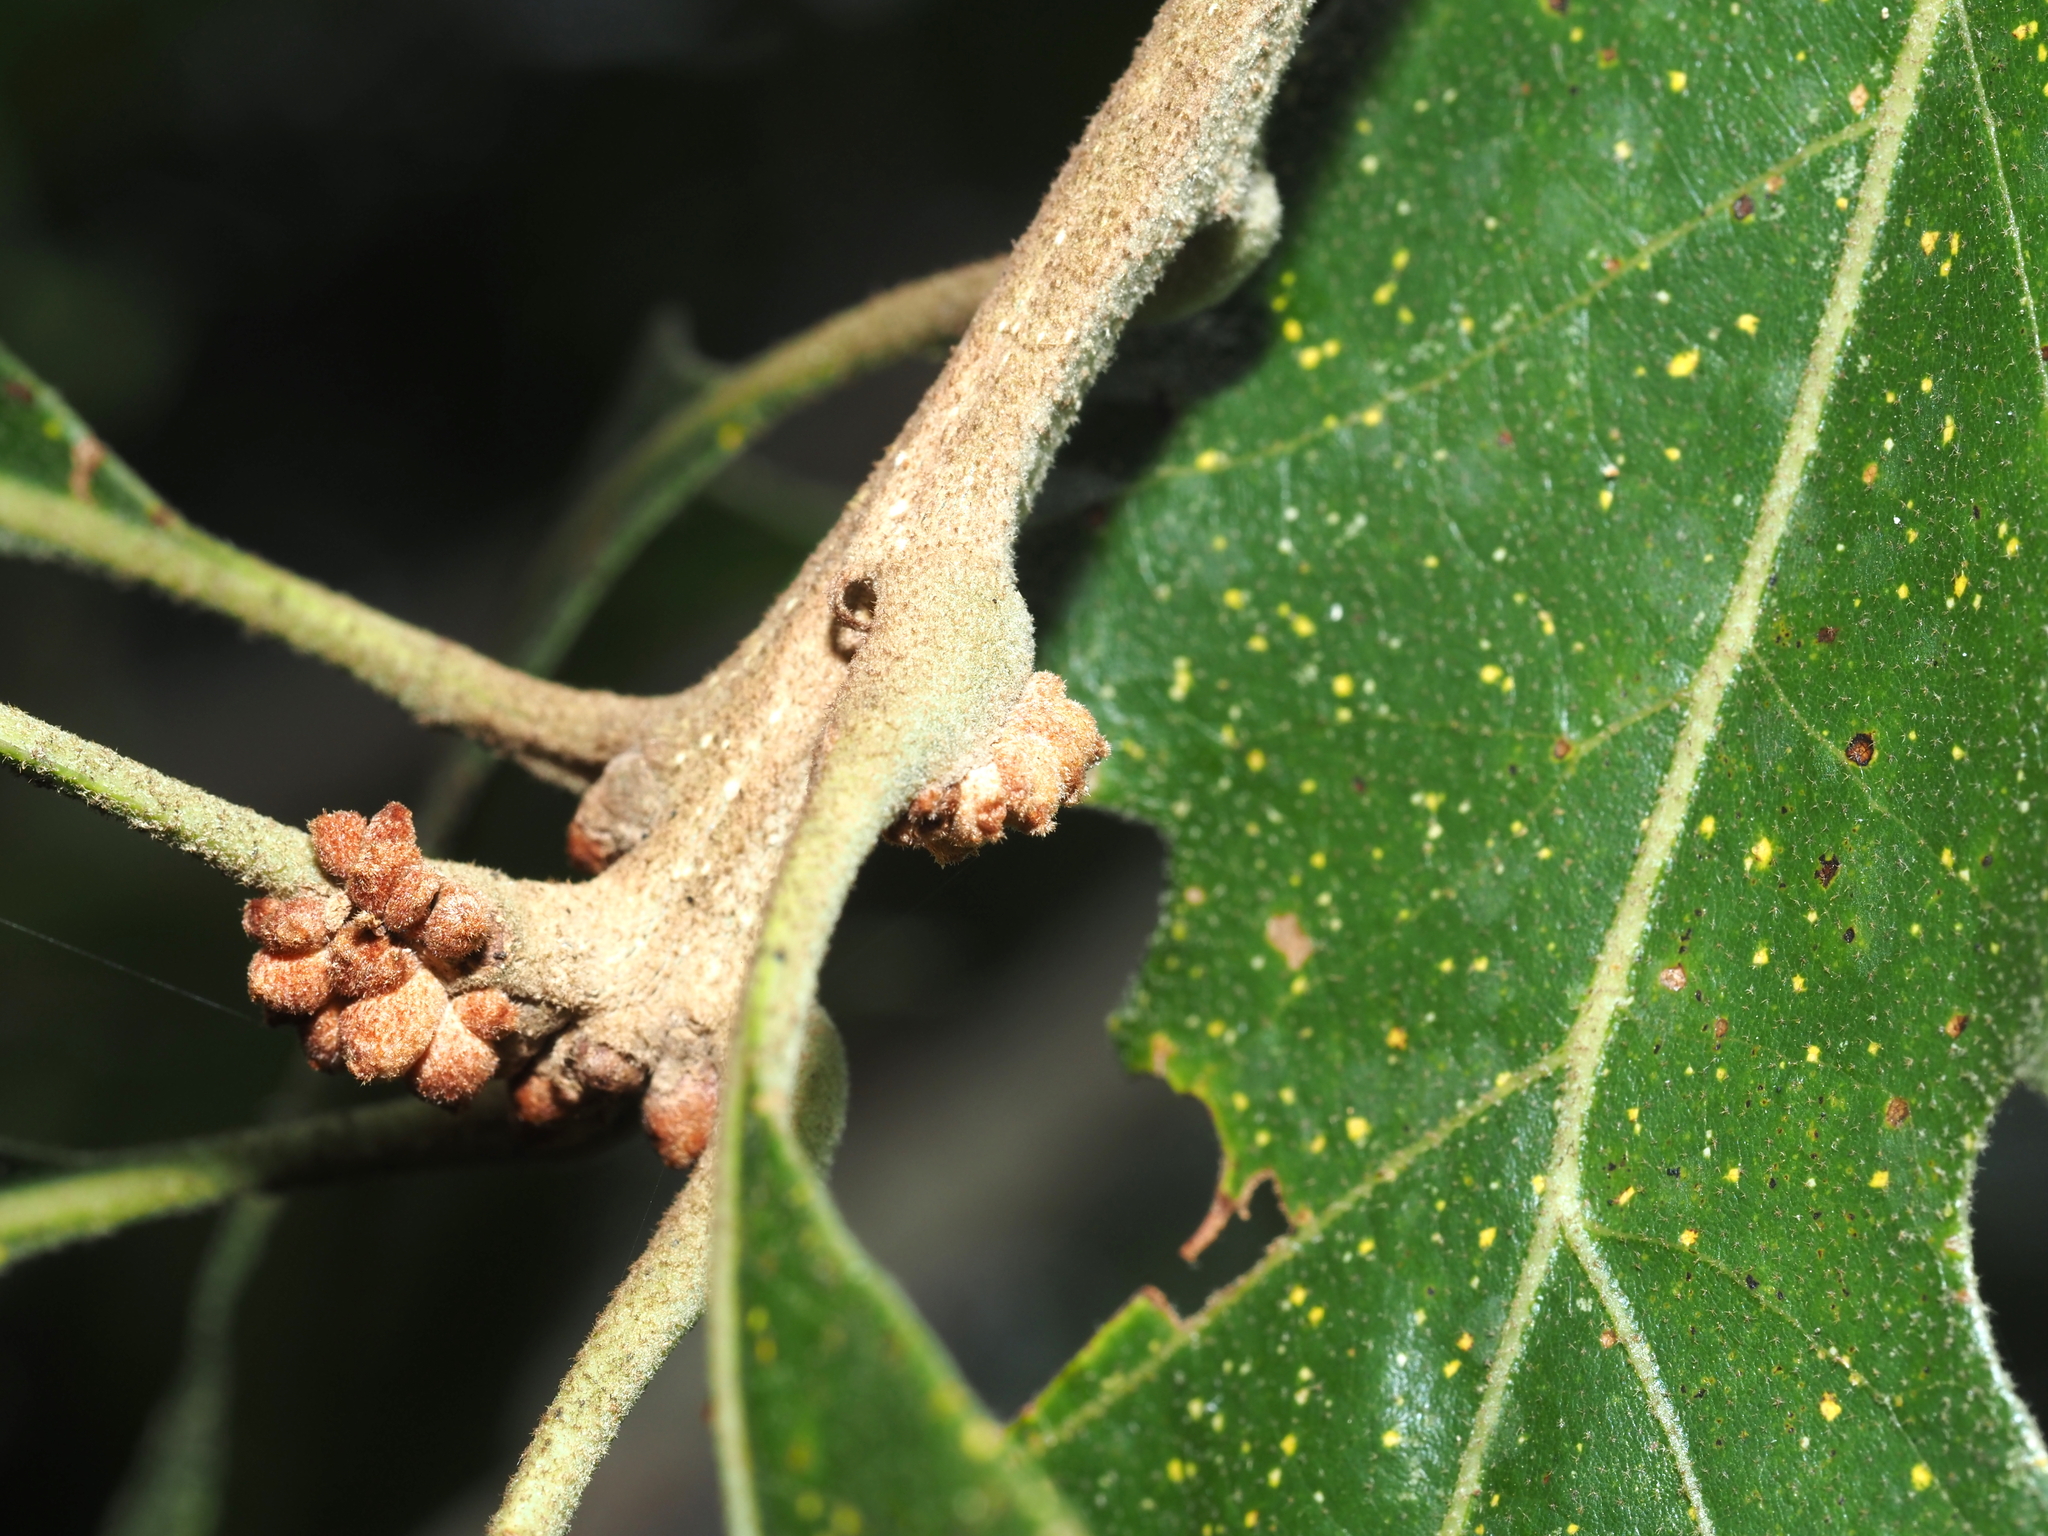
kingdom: Animalia
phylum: Arthropoda
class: Insecta
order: Hymenoptera
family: Cynipidae
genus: Andricus
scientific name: Andricus
